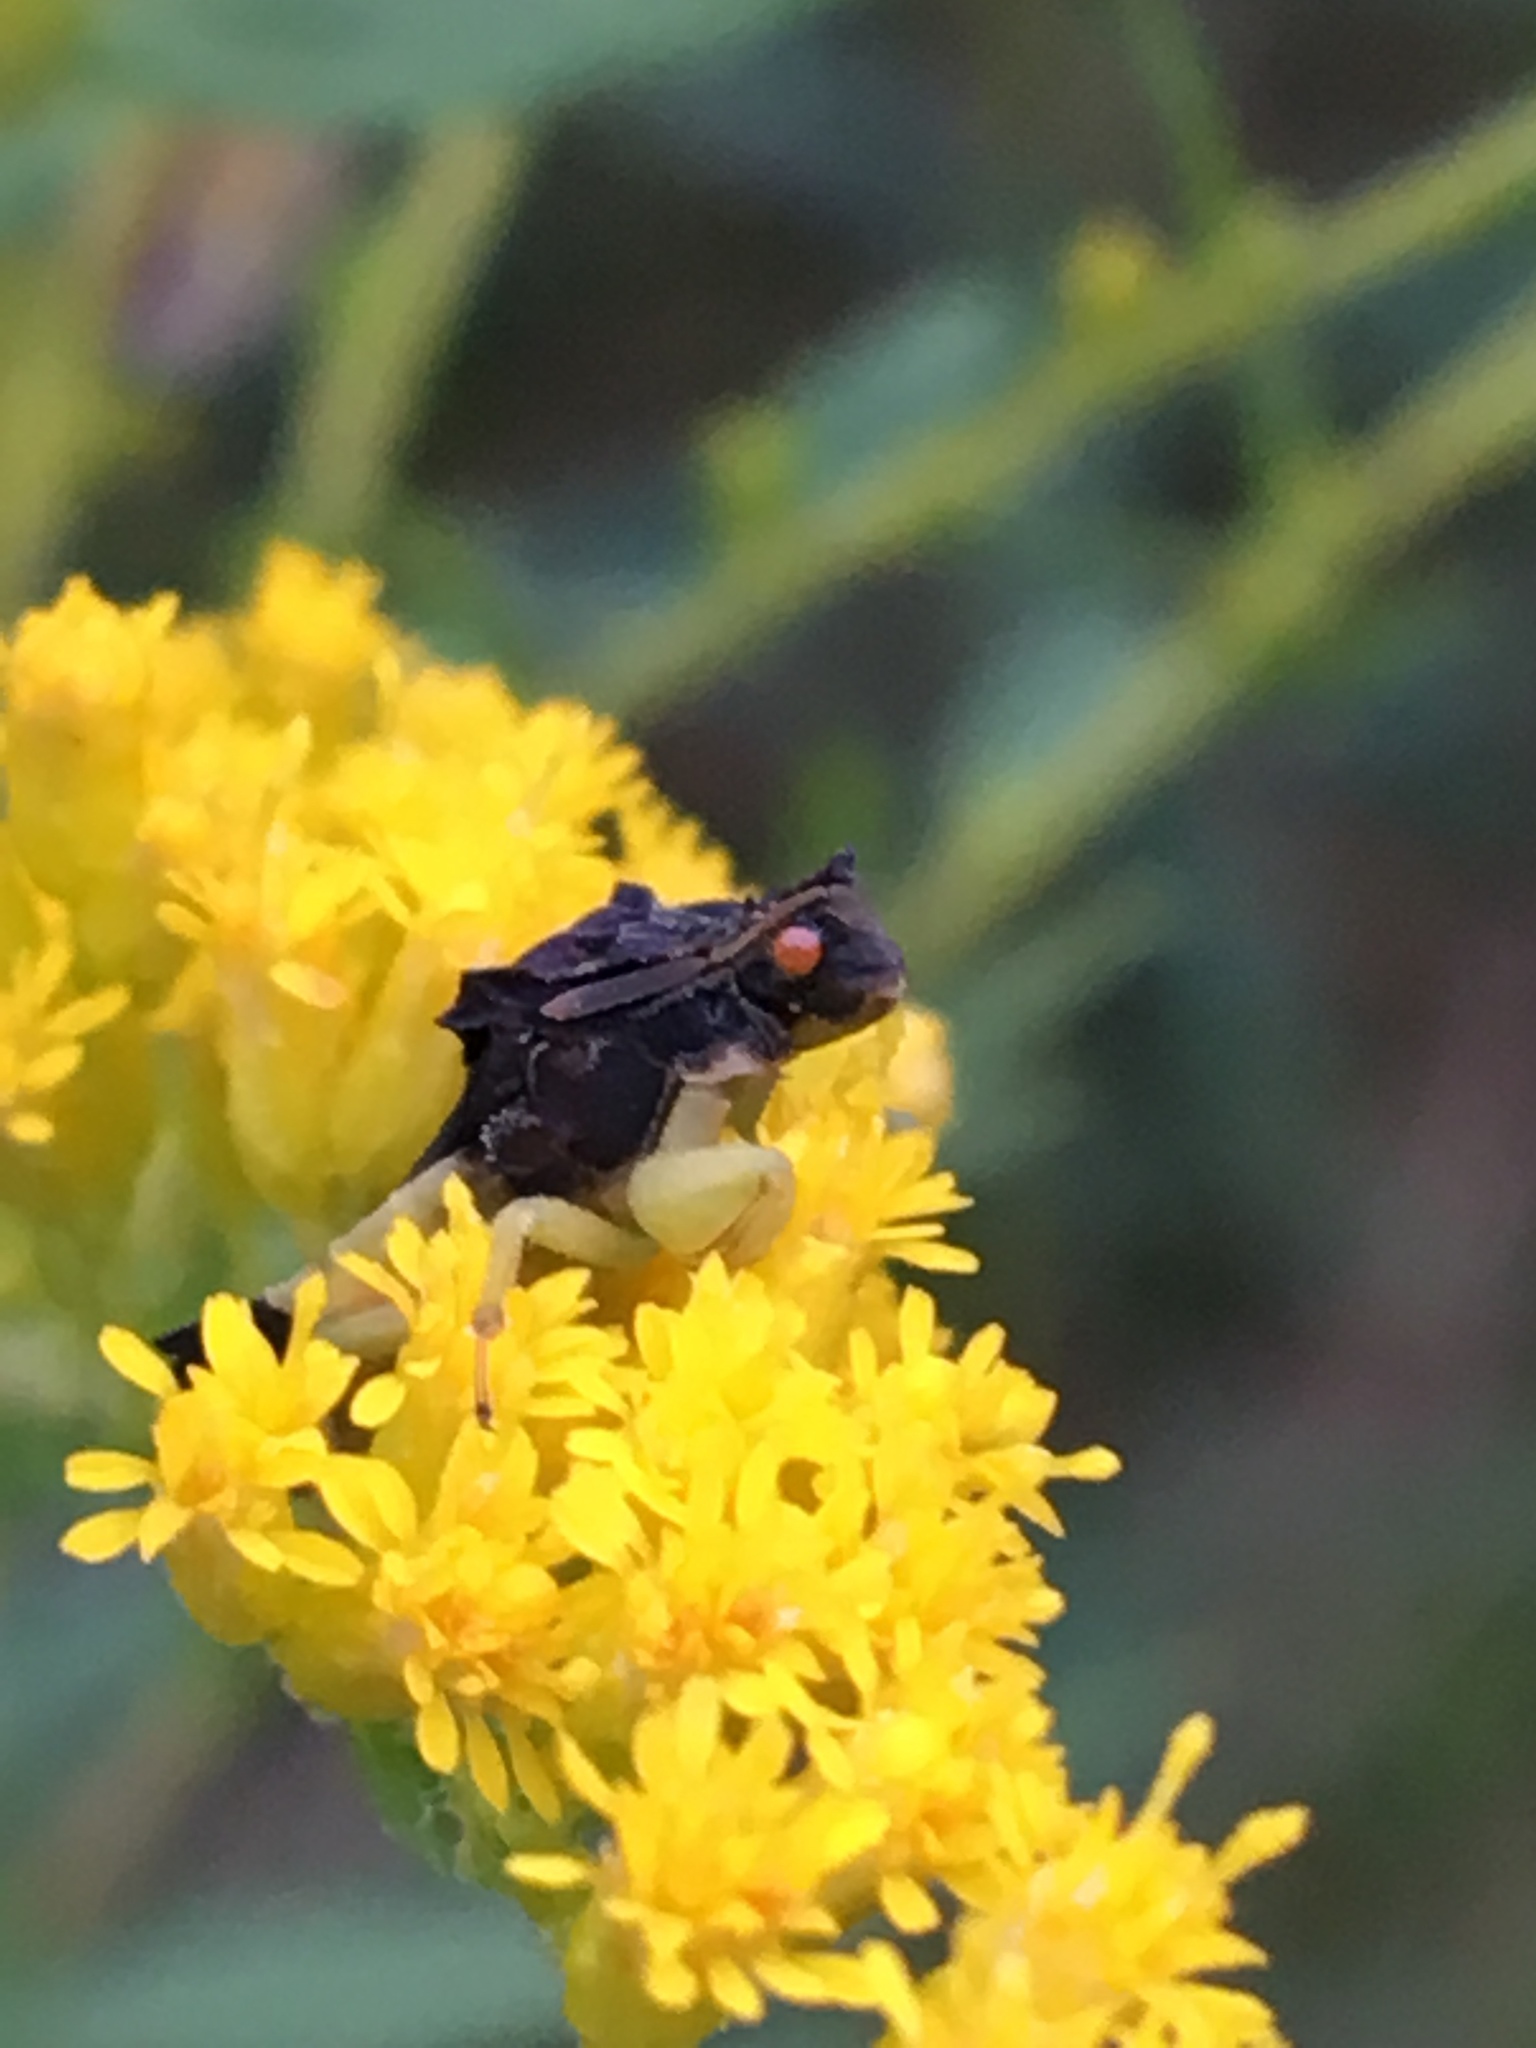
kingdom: Animalia
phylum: Arthropoda
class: Insecta
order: Hemiptera
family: Reduviidae
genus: Phymata
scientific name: Phymata pennsylvanica
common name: Pennsylvania ambush bug
